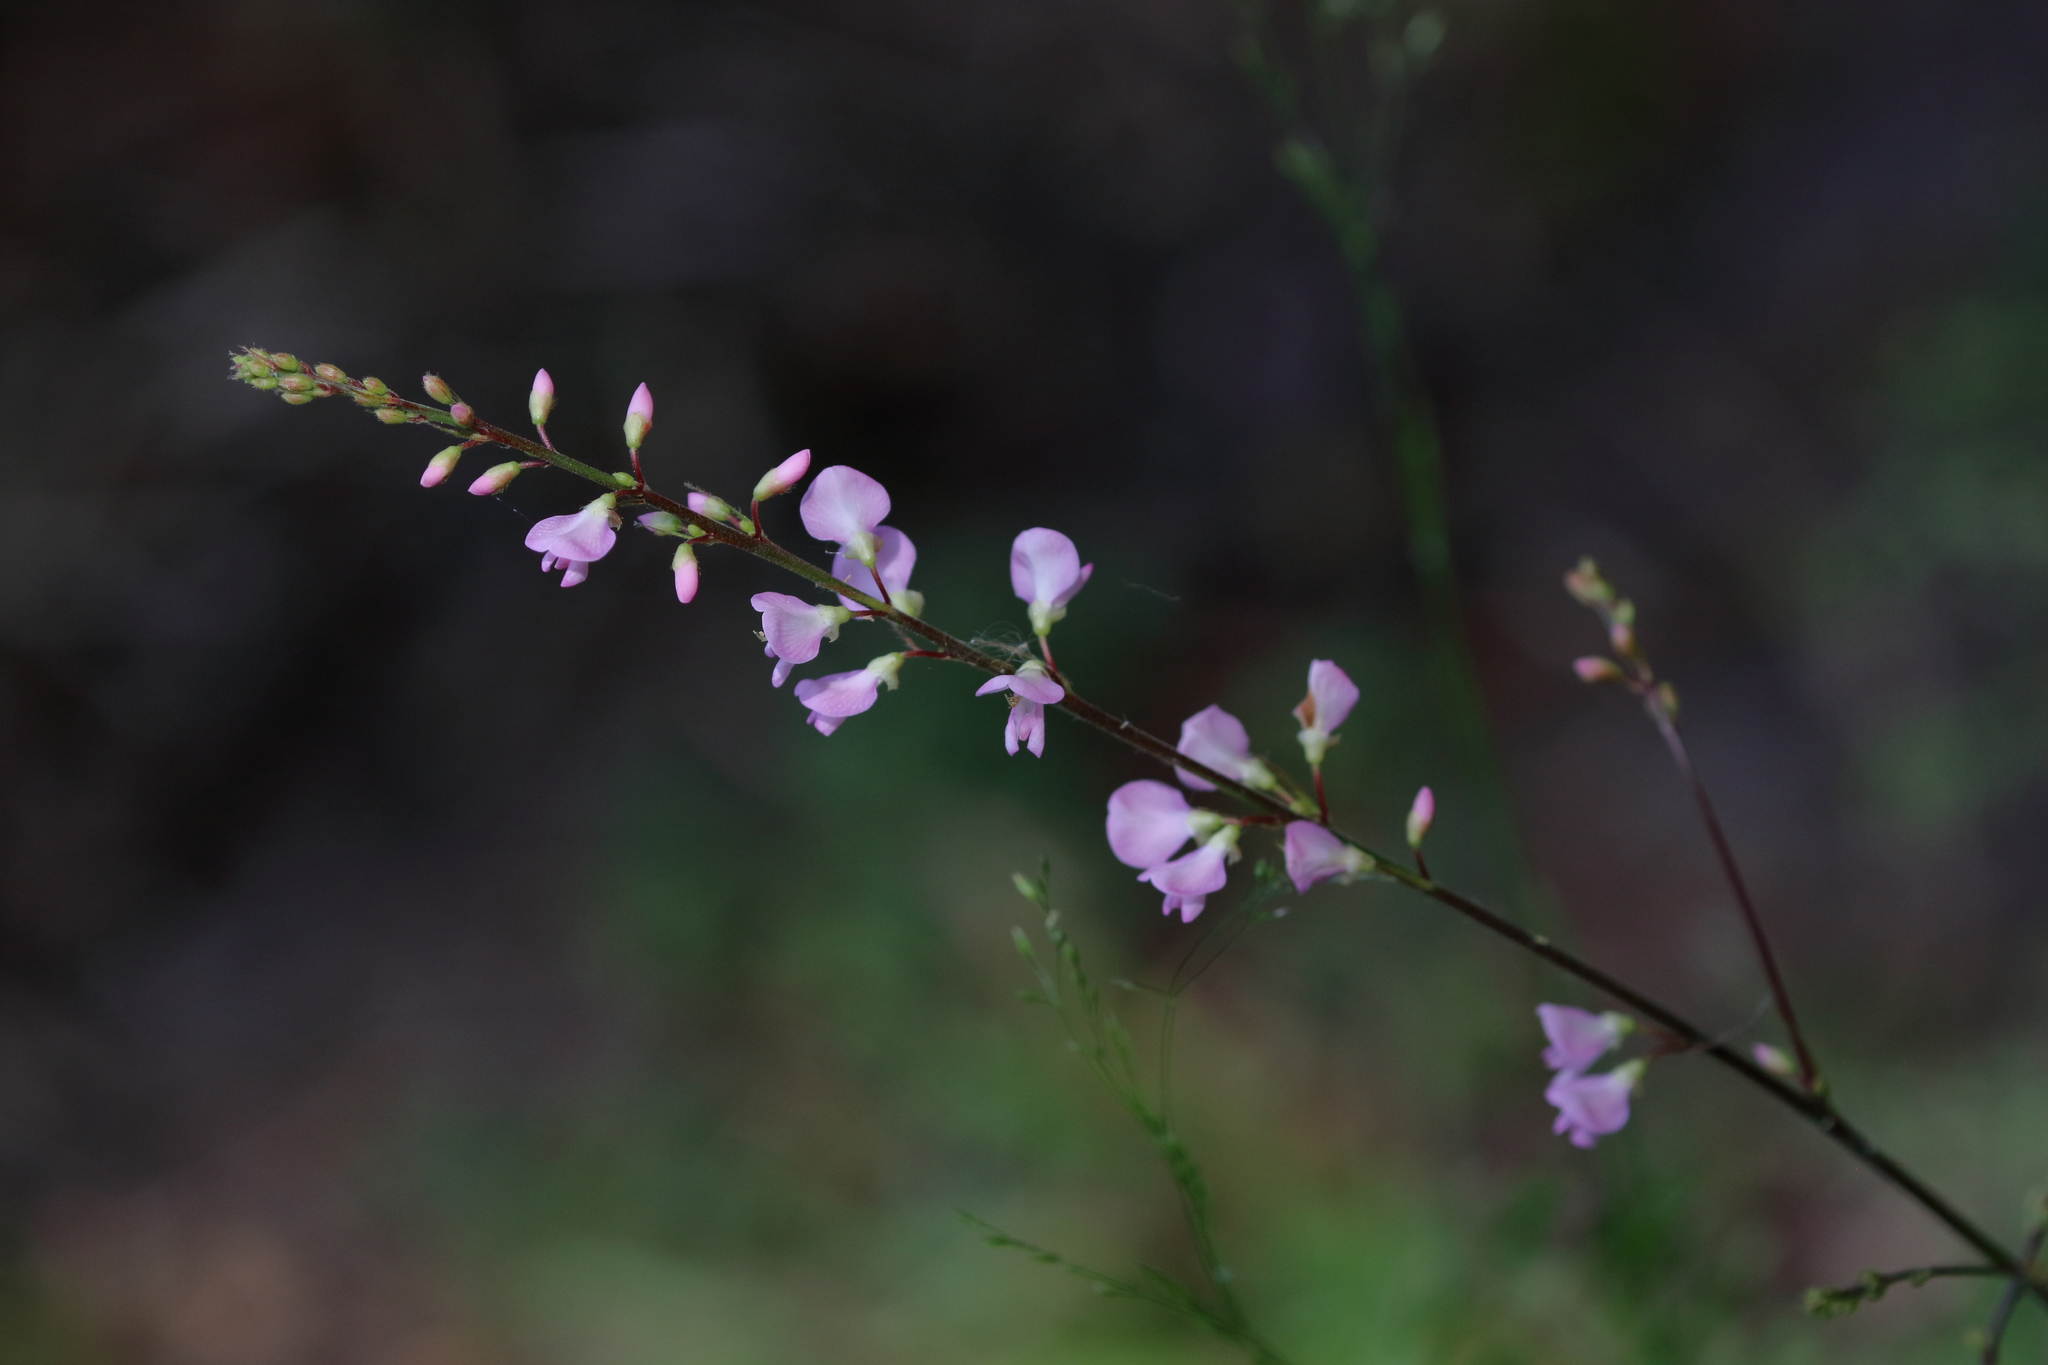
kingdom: Plantae
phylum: Tracheophyta
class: Magnoliopsida
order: Fabales
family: Fabaceae
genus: Hylodesmum
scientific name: Hylodesmum glutinosum
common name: Clustered-leaved tick-trefoil
